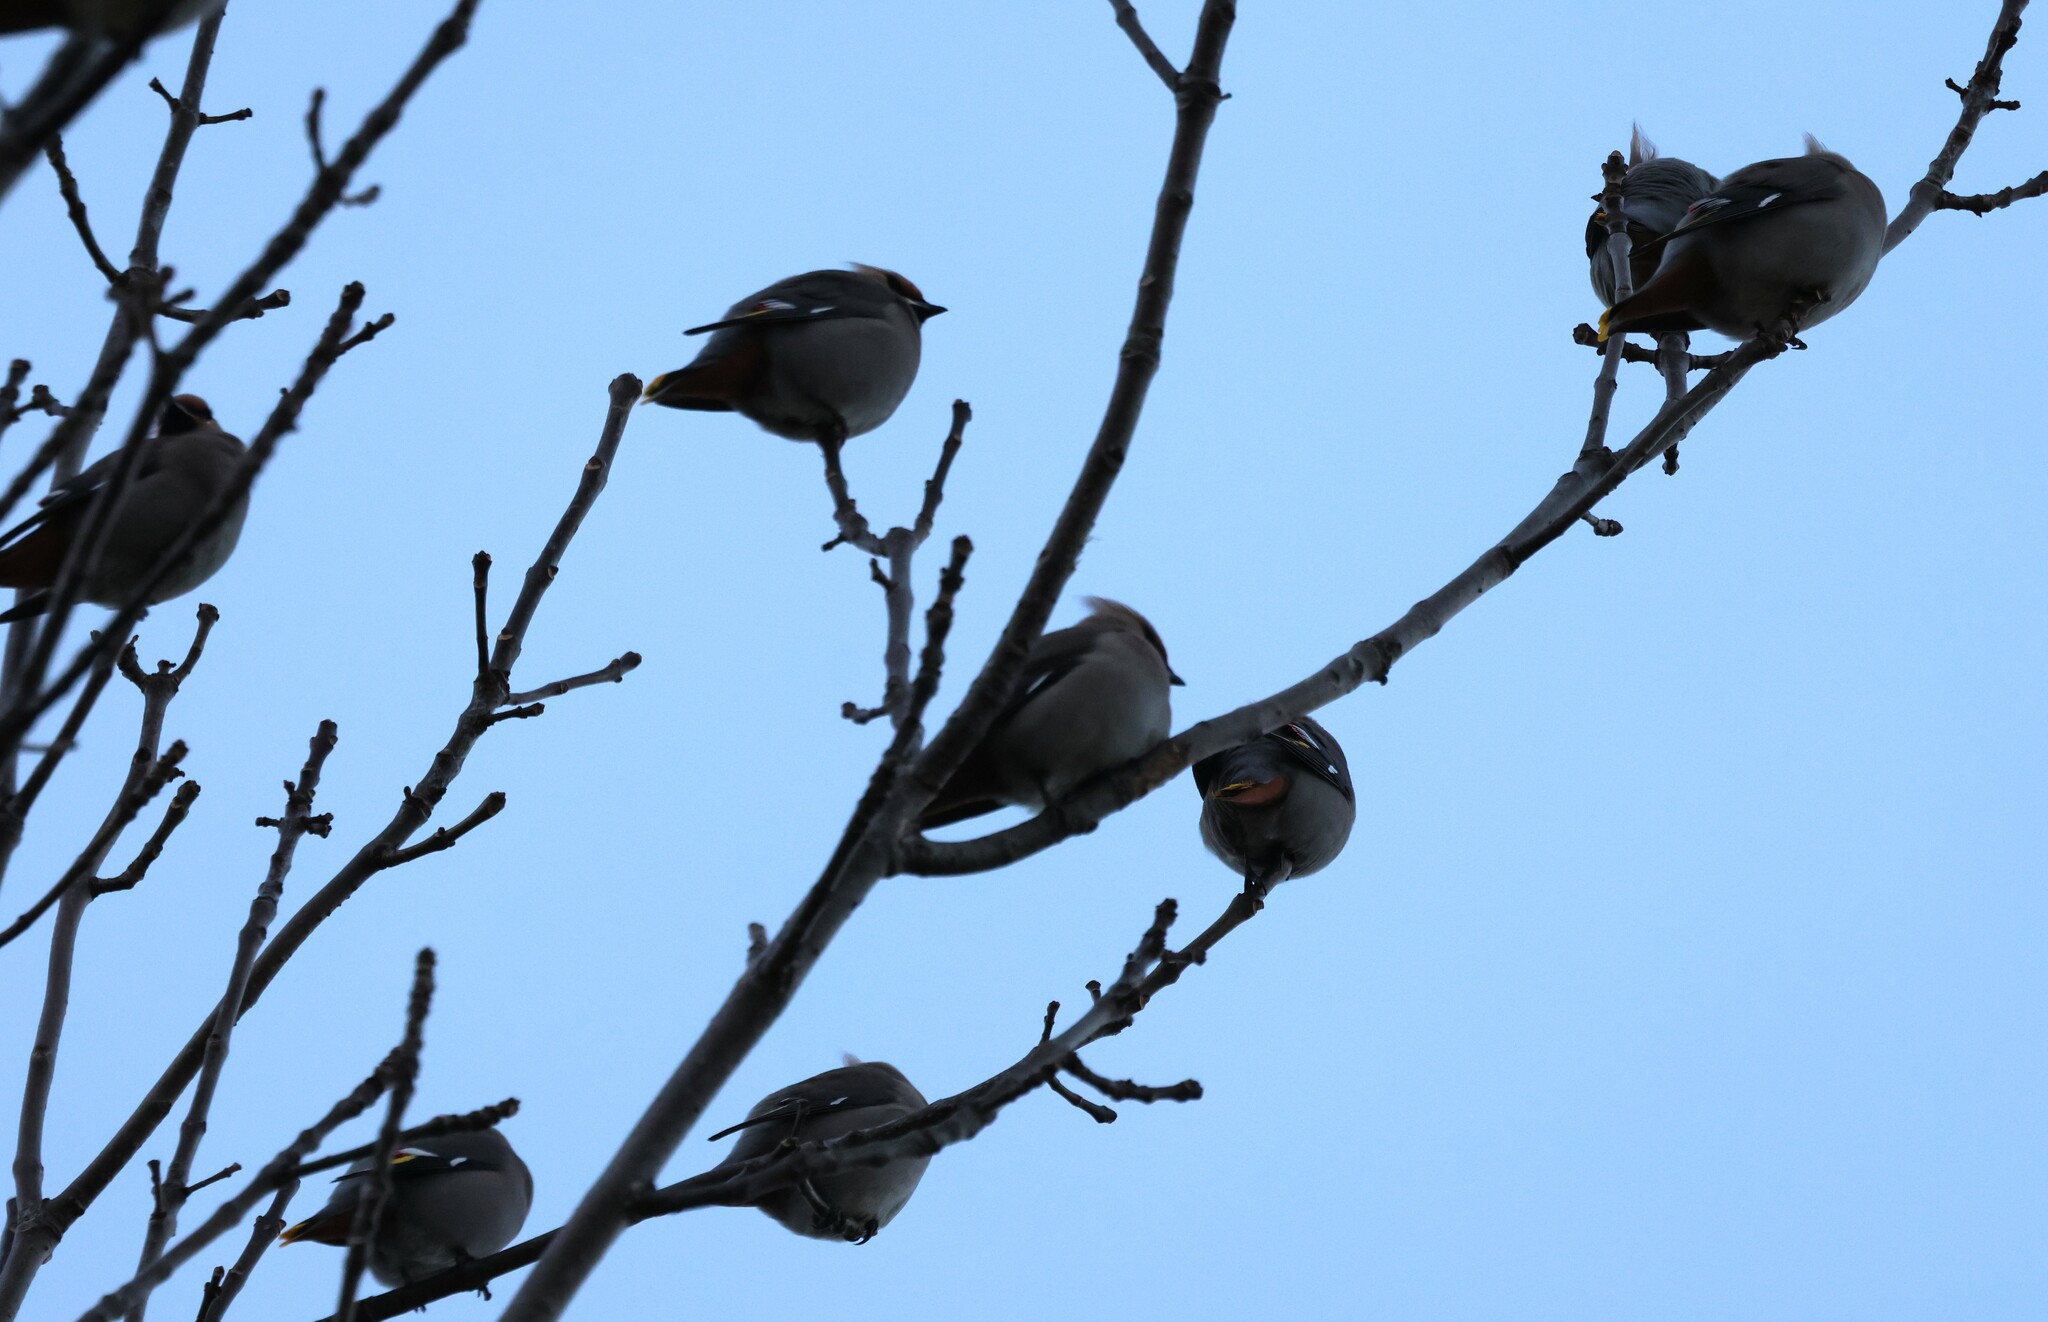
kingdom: Animalia
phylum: Chordata
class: Aves
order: Passeriformes
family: Bombycillidae
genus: Bombycilla
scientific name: Bombycilla garrulus
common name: Bohemian waxwing
